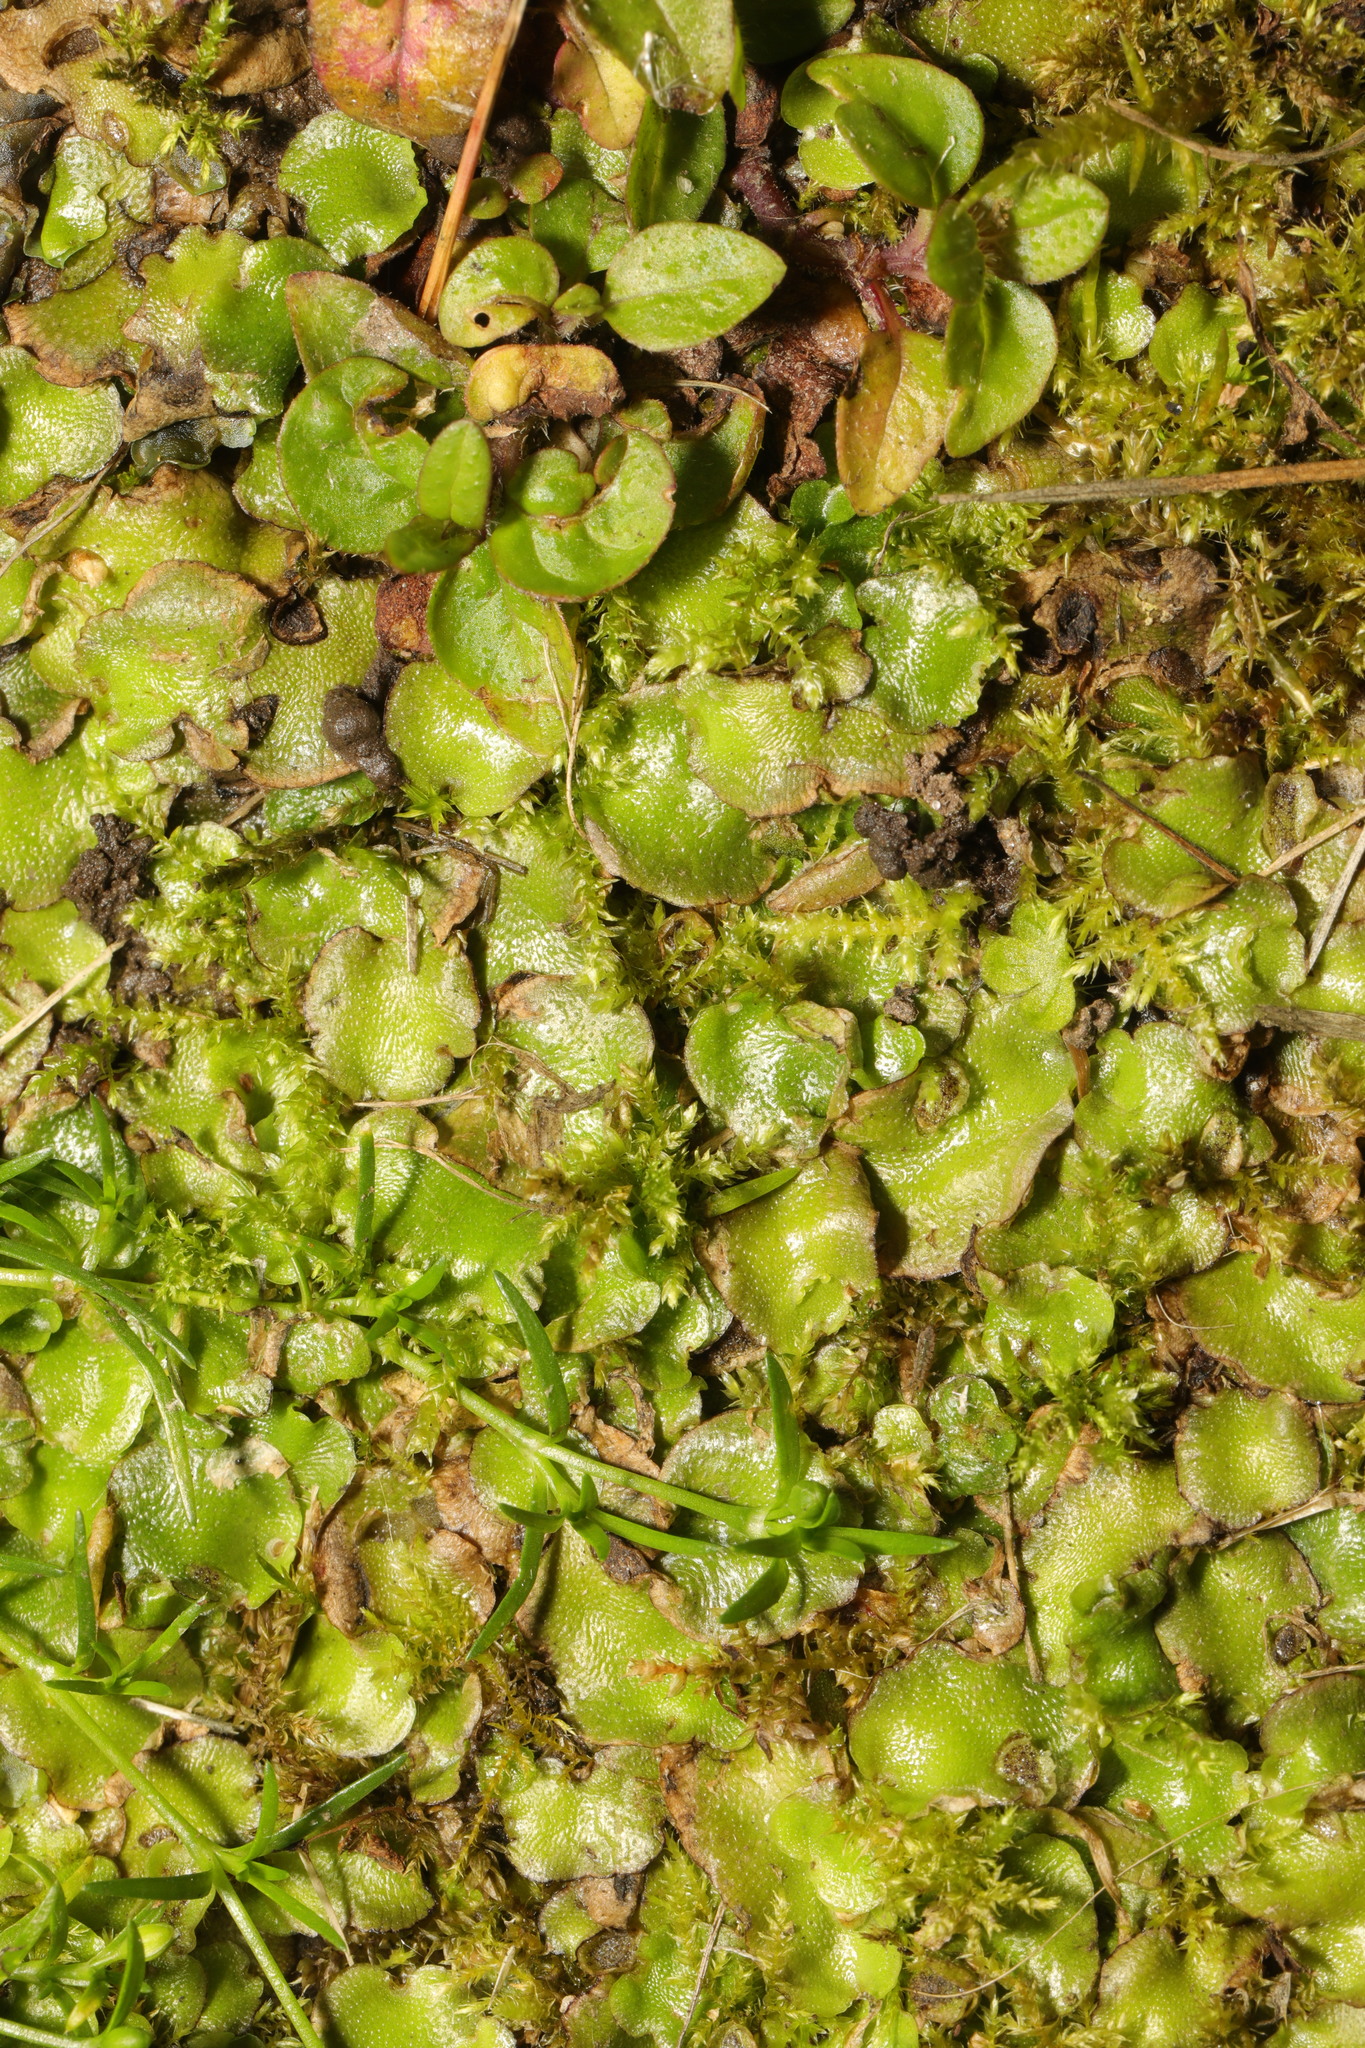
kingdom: Plantae
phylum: Marchantiophyta
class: Marchantiopsida
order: Lunulariales
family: Lunulariaceae
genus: Lunularia
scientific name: Lunularia cruciata
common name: Crescent-cup liverwort
